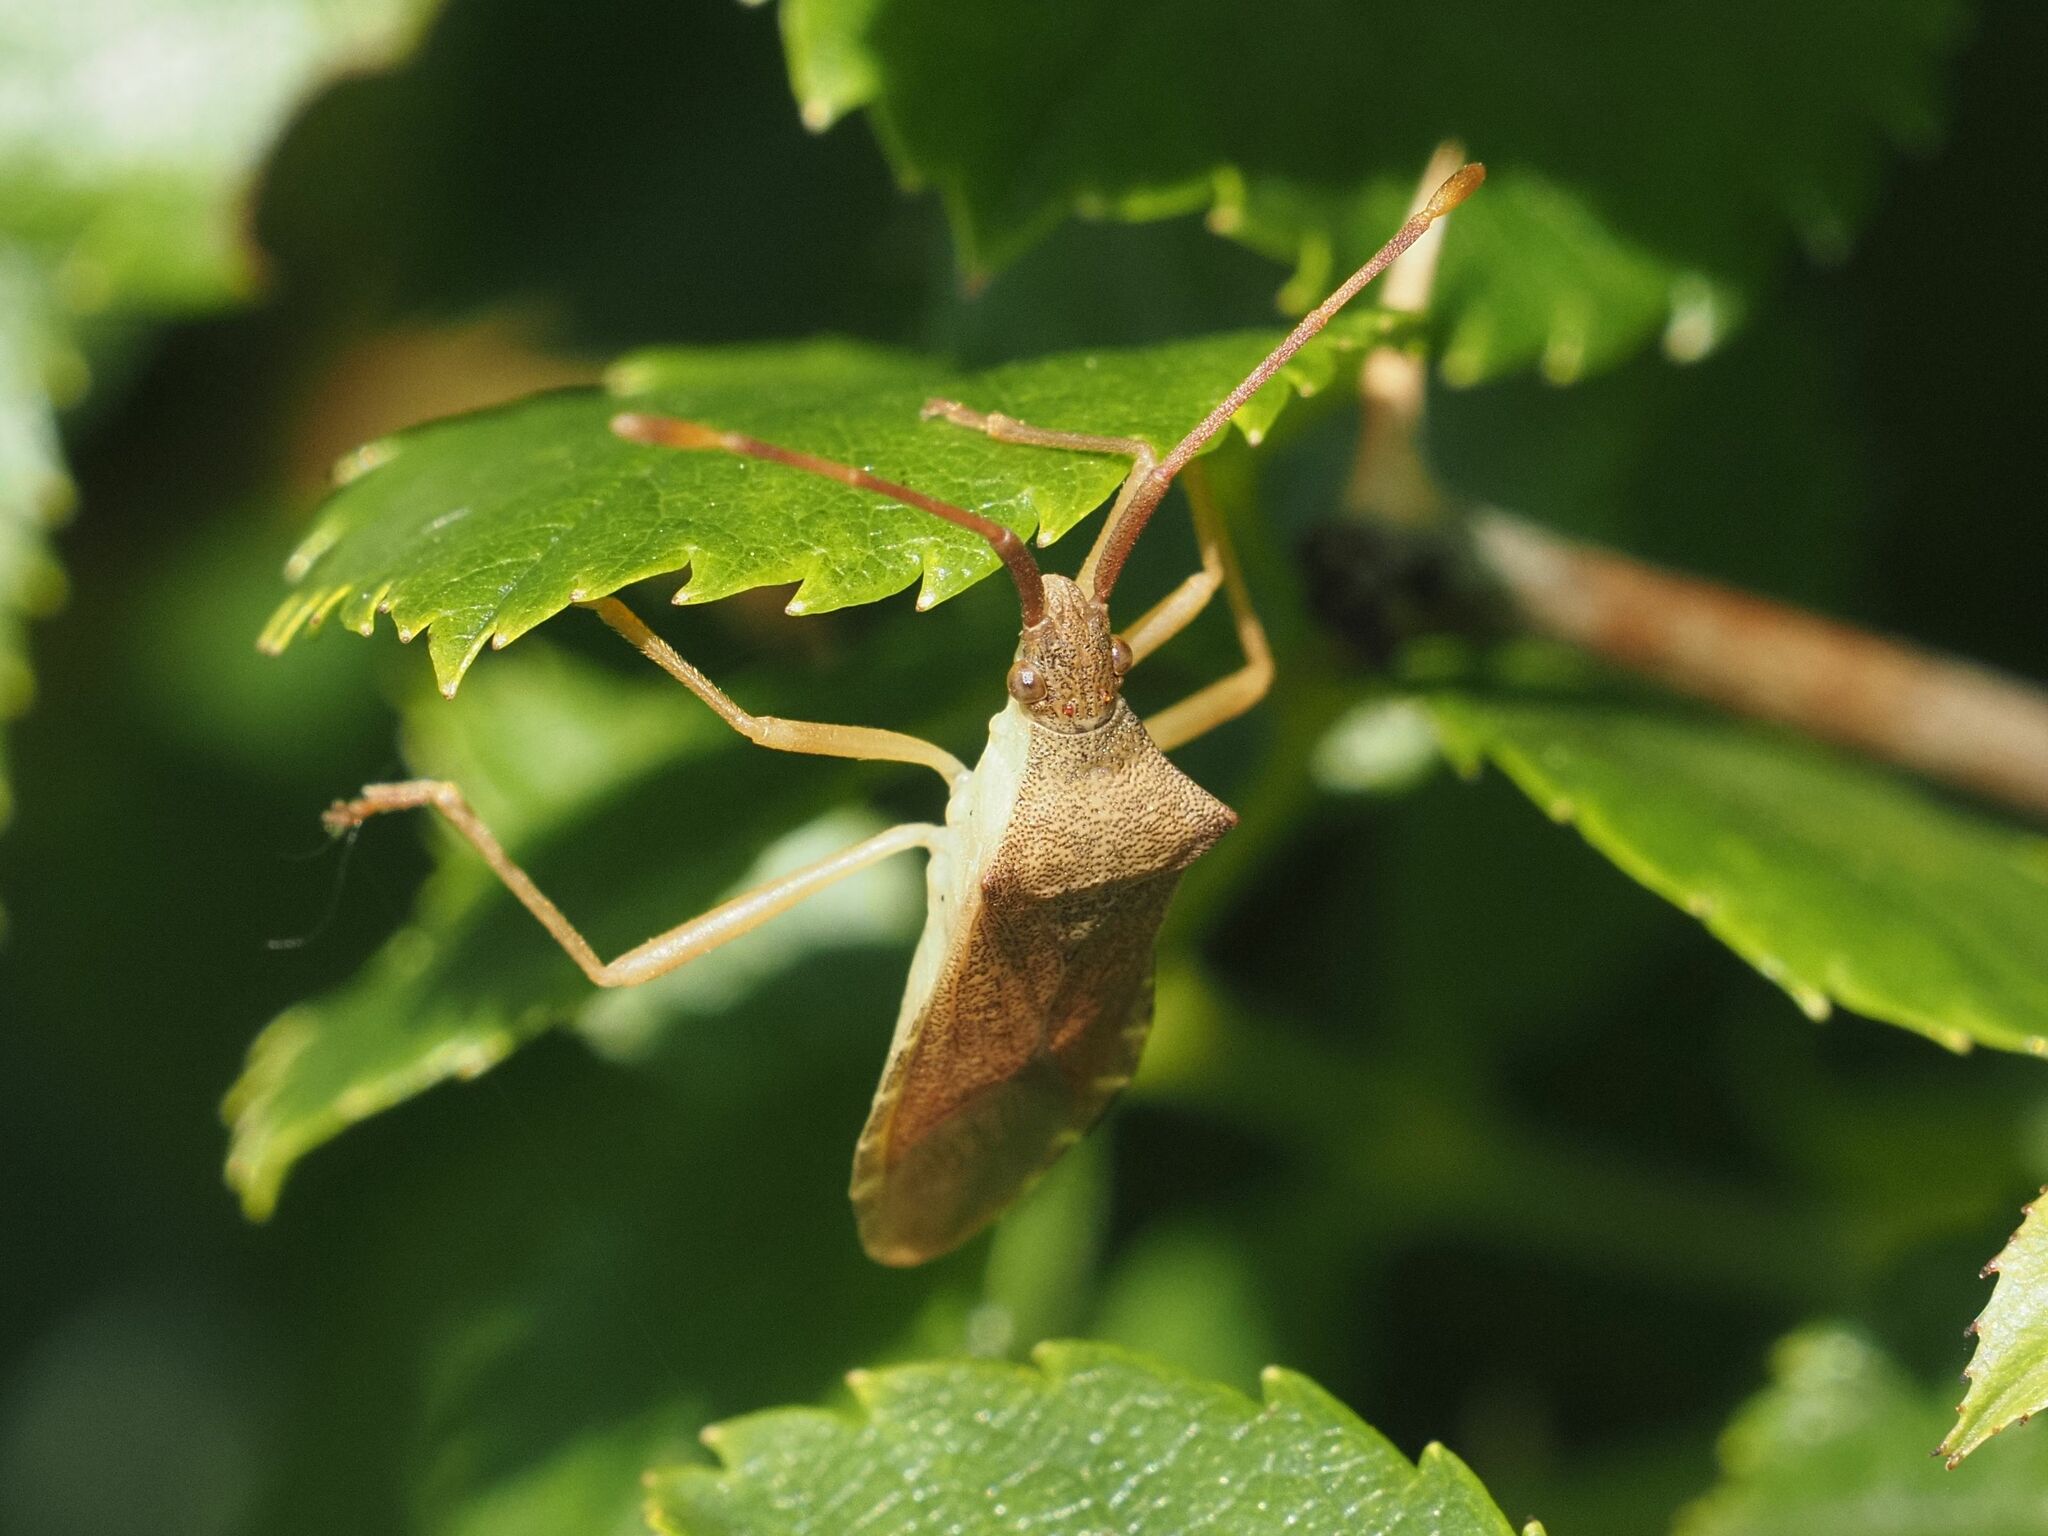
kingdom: Animalia
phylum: Arthropoda
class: Insecta
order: Hemiptera
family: Coreidae
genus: Gonocerus
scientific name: Gonocerus acuteangulatus
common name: Box bug
